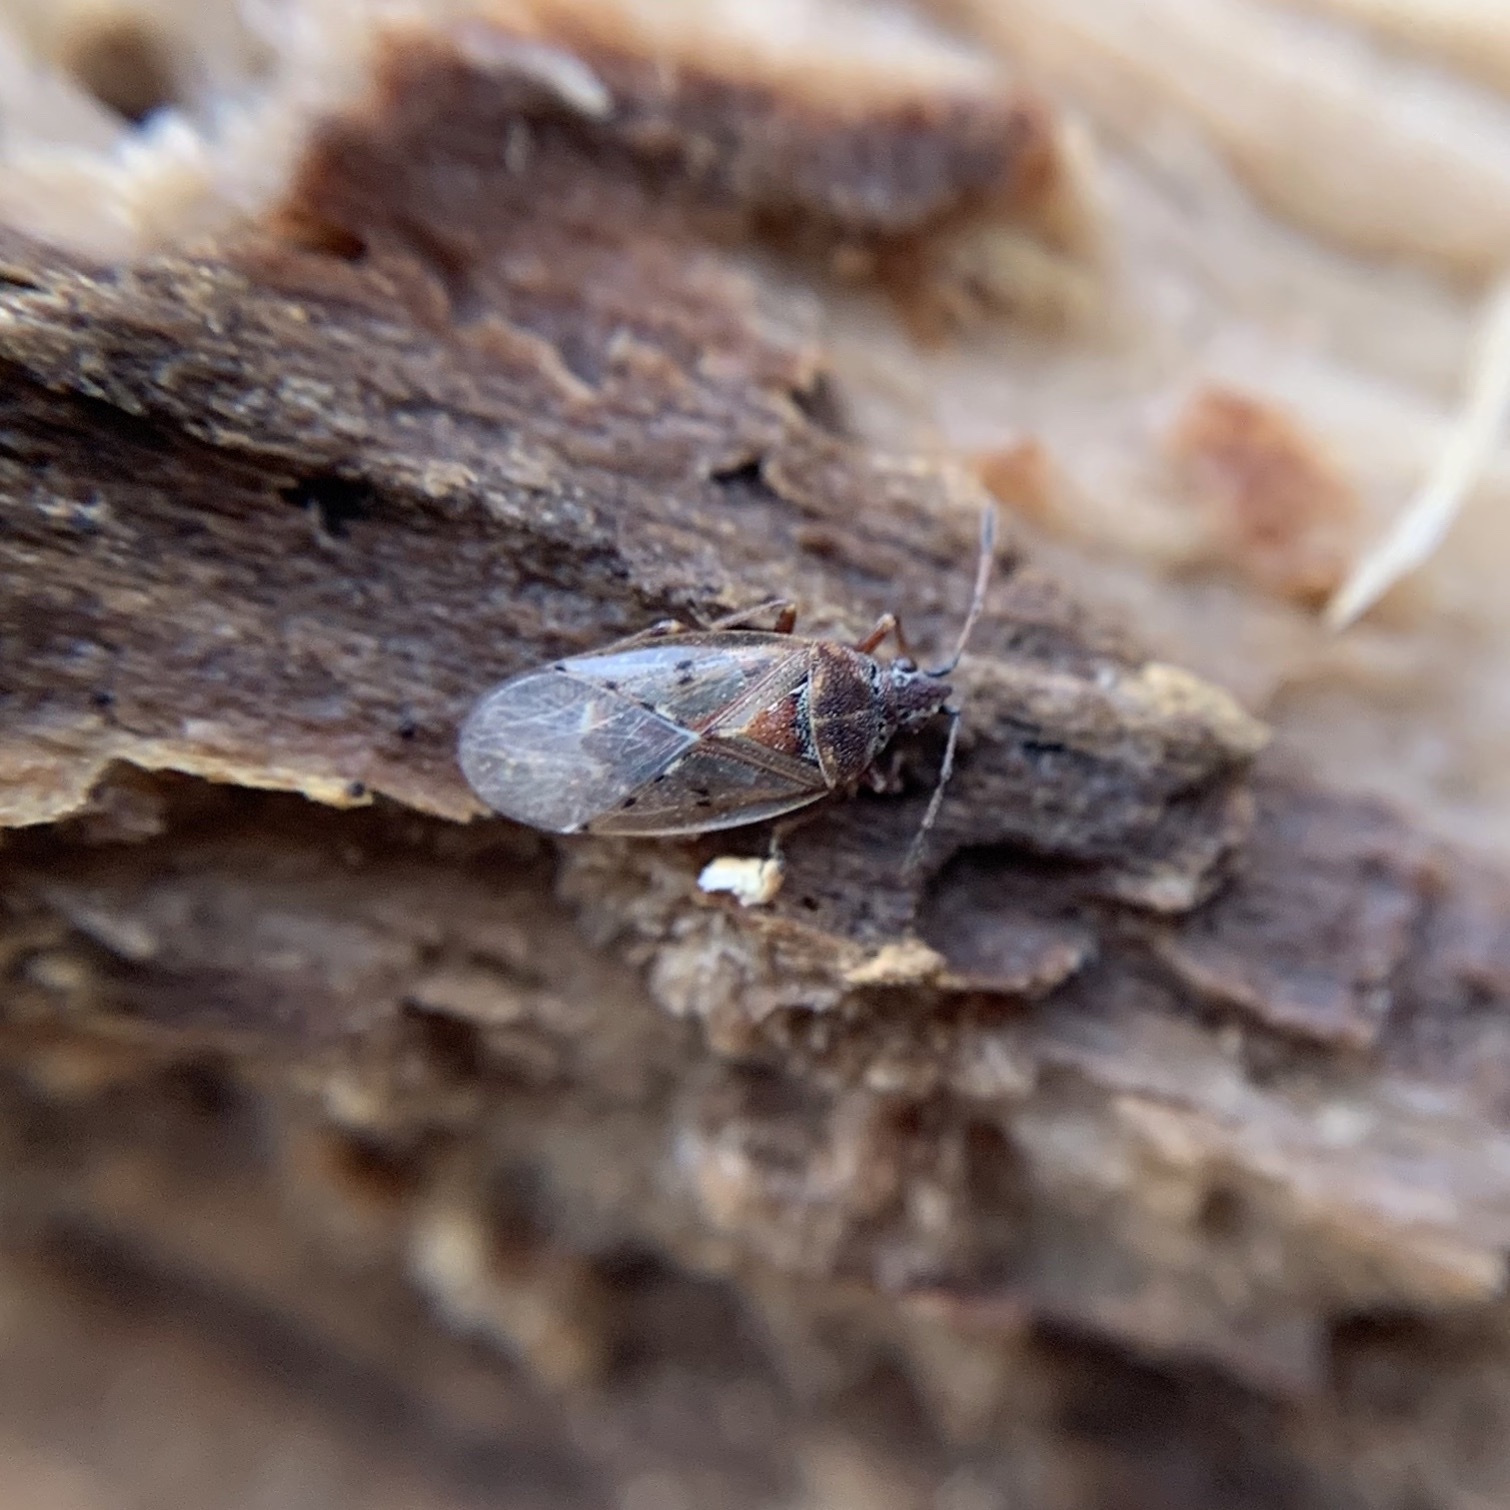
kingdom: Animalia
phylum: Arthropoda
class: Insecta
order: Hemiptera
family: Lygaeidae
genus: Kleidocerys
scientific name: Kleidocerys resedae
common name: Birch catkin bug
